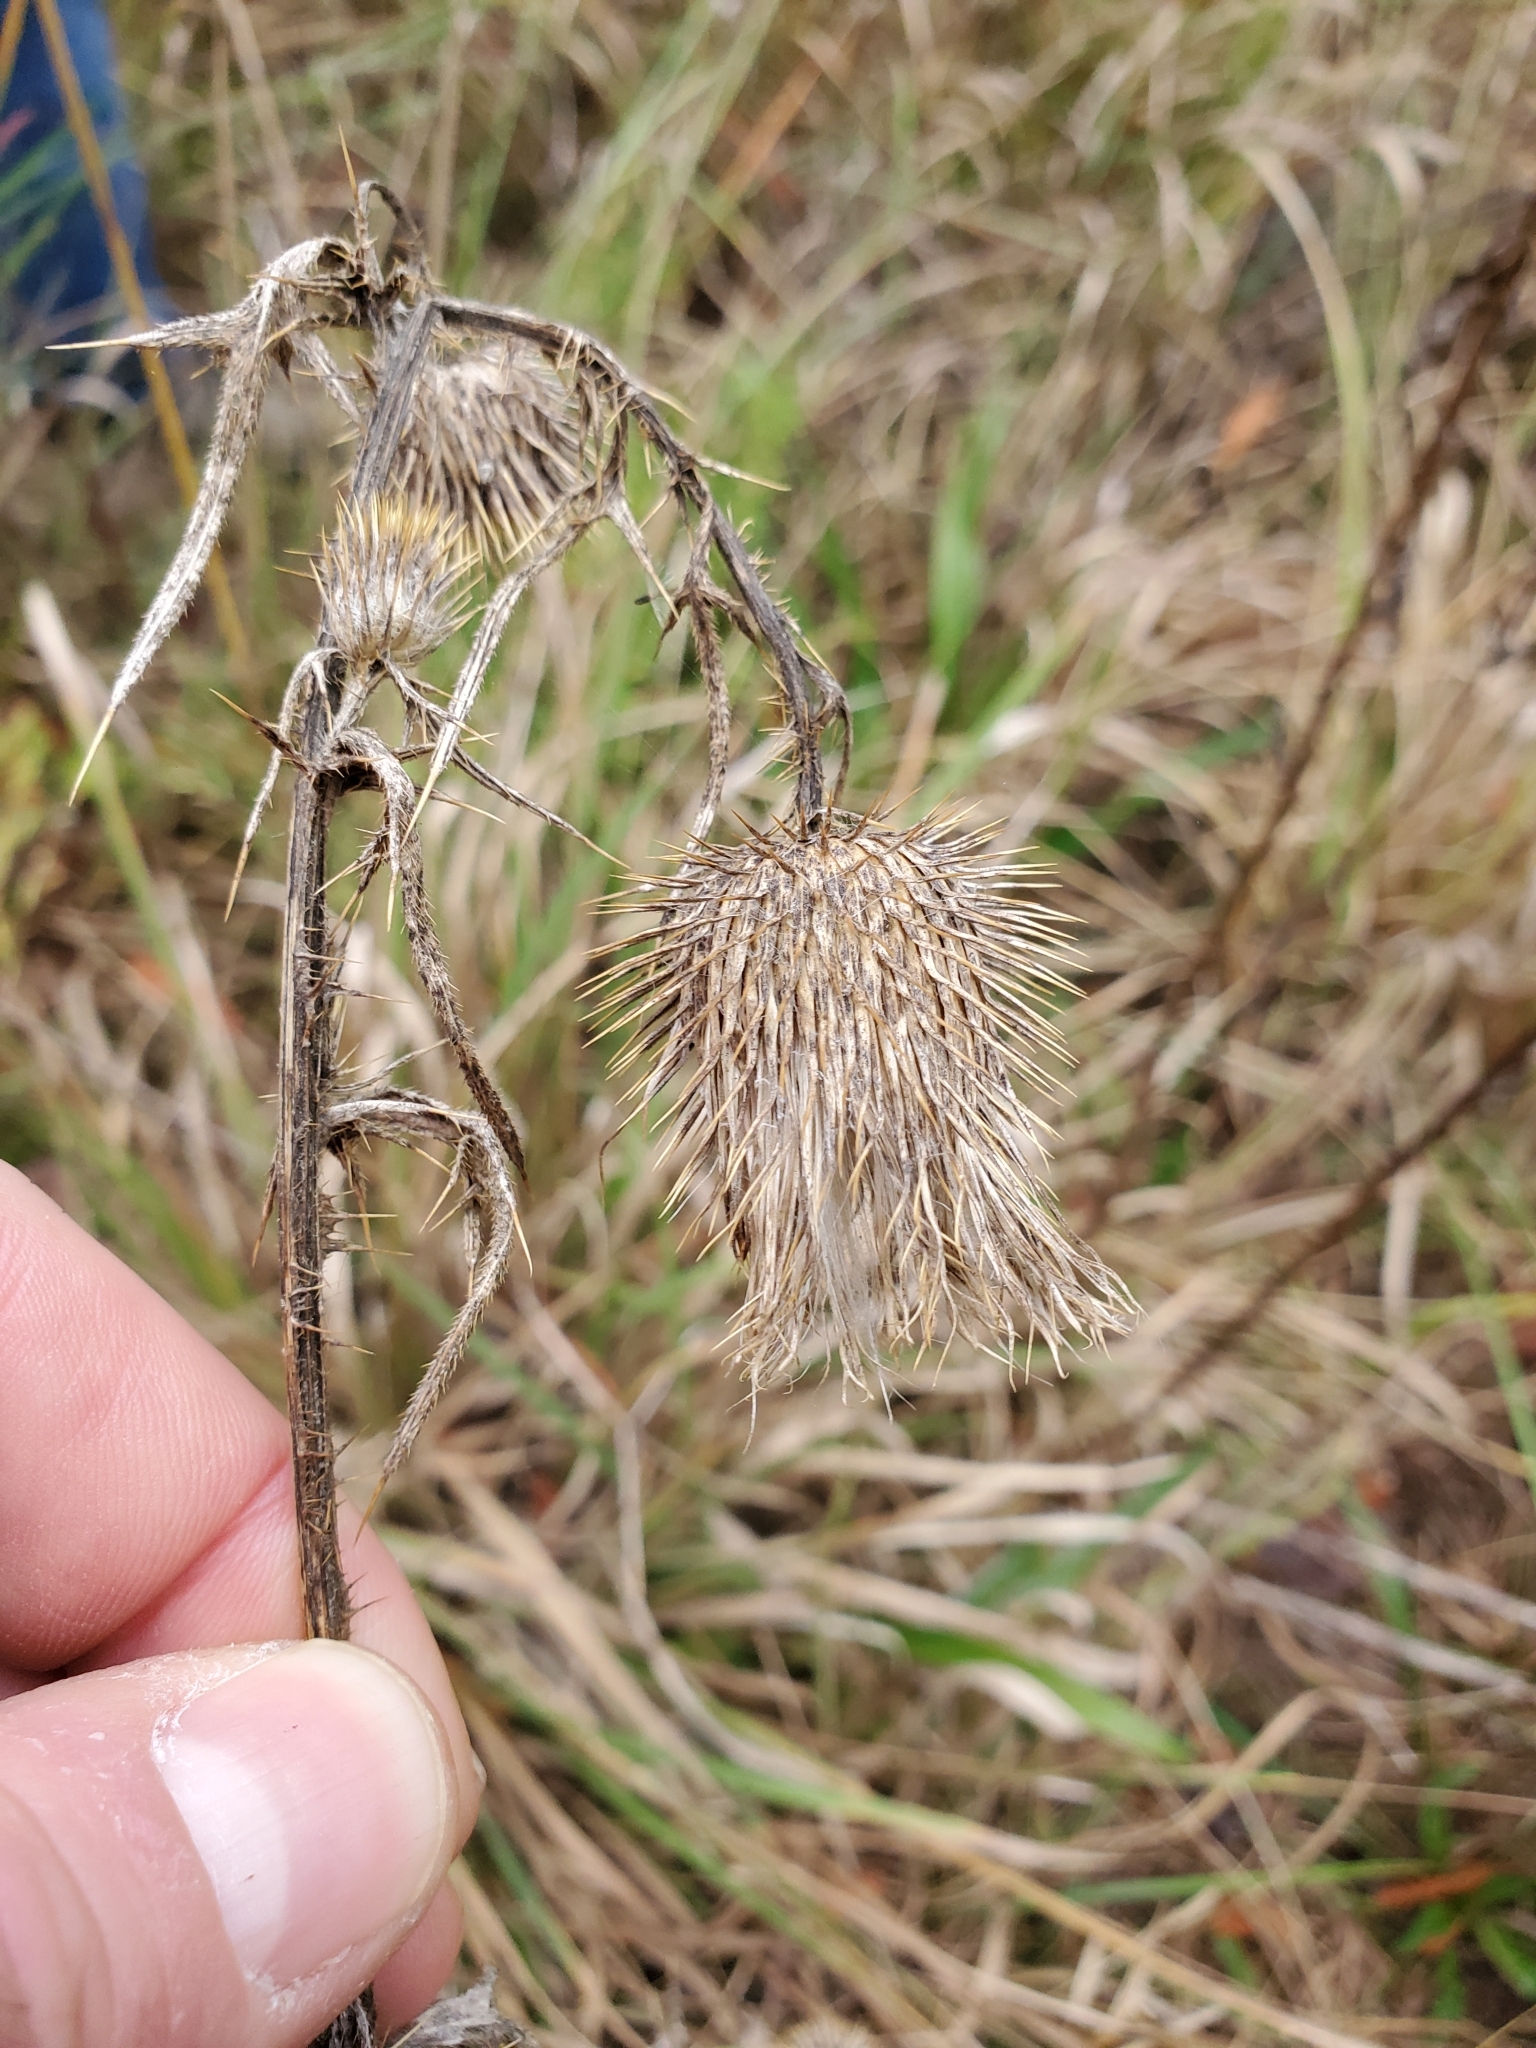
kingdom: Plantae
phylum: Tracheophyta
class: Magnoliopsida
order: Asterales
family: Asteraceae
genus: Cirsium
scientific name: Cirsium vulgare
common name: Bull thistle
